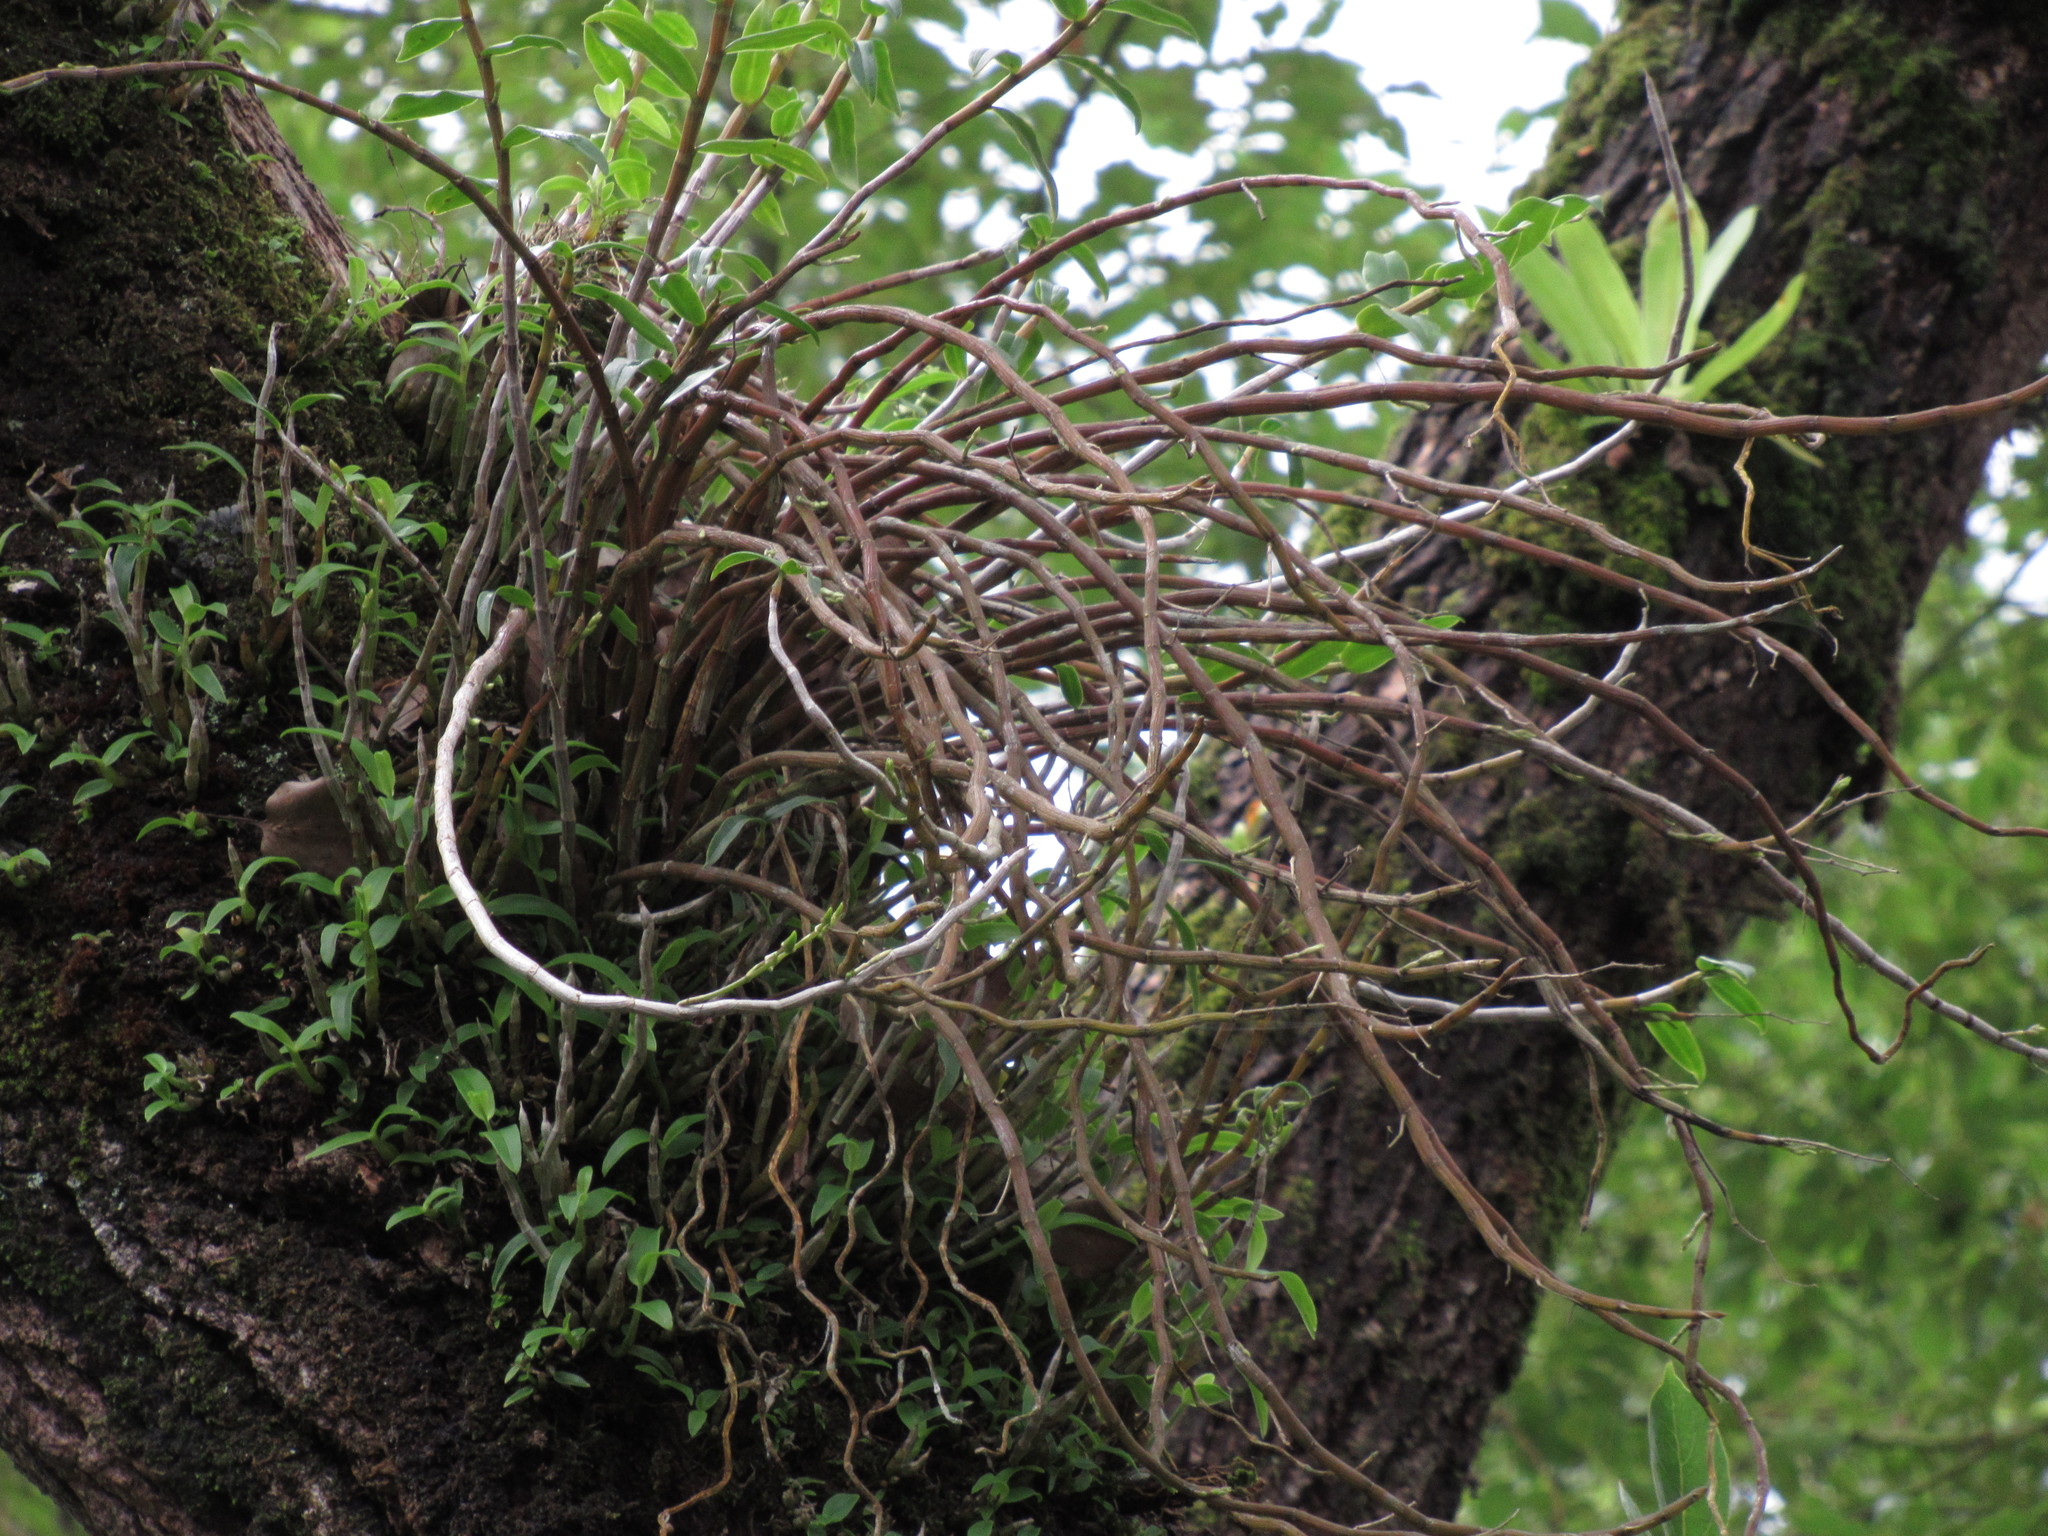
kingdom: Plantae
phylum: Tracheophyta
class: Liliopsida
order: Asparagales
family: Orchidaceae
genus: Dendrobium
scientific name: Dendrobium officinale
